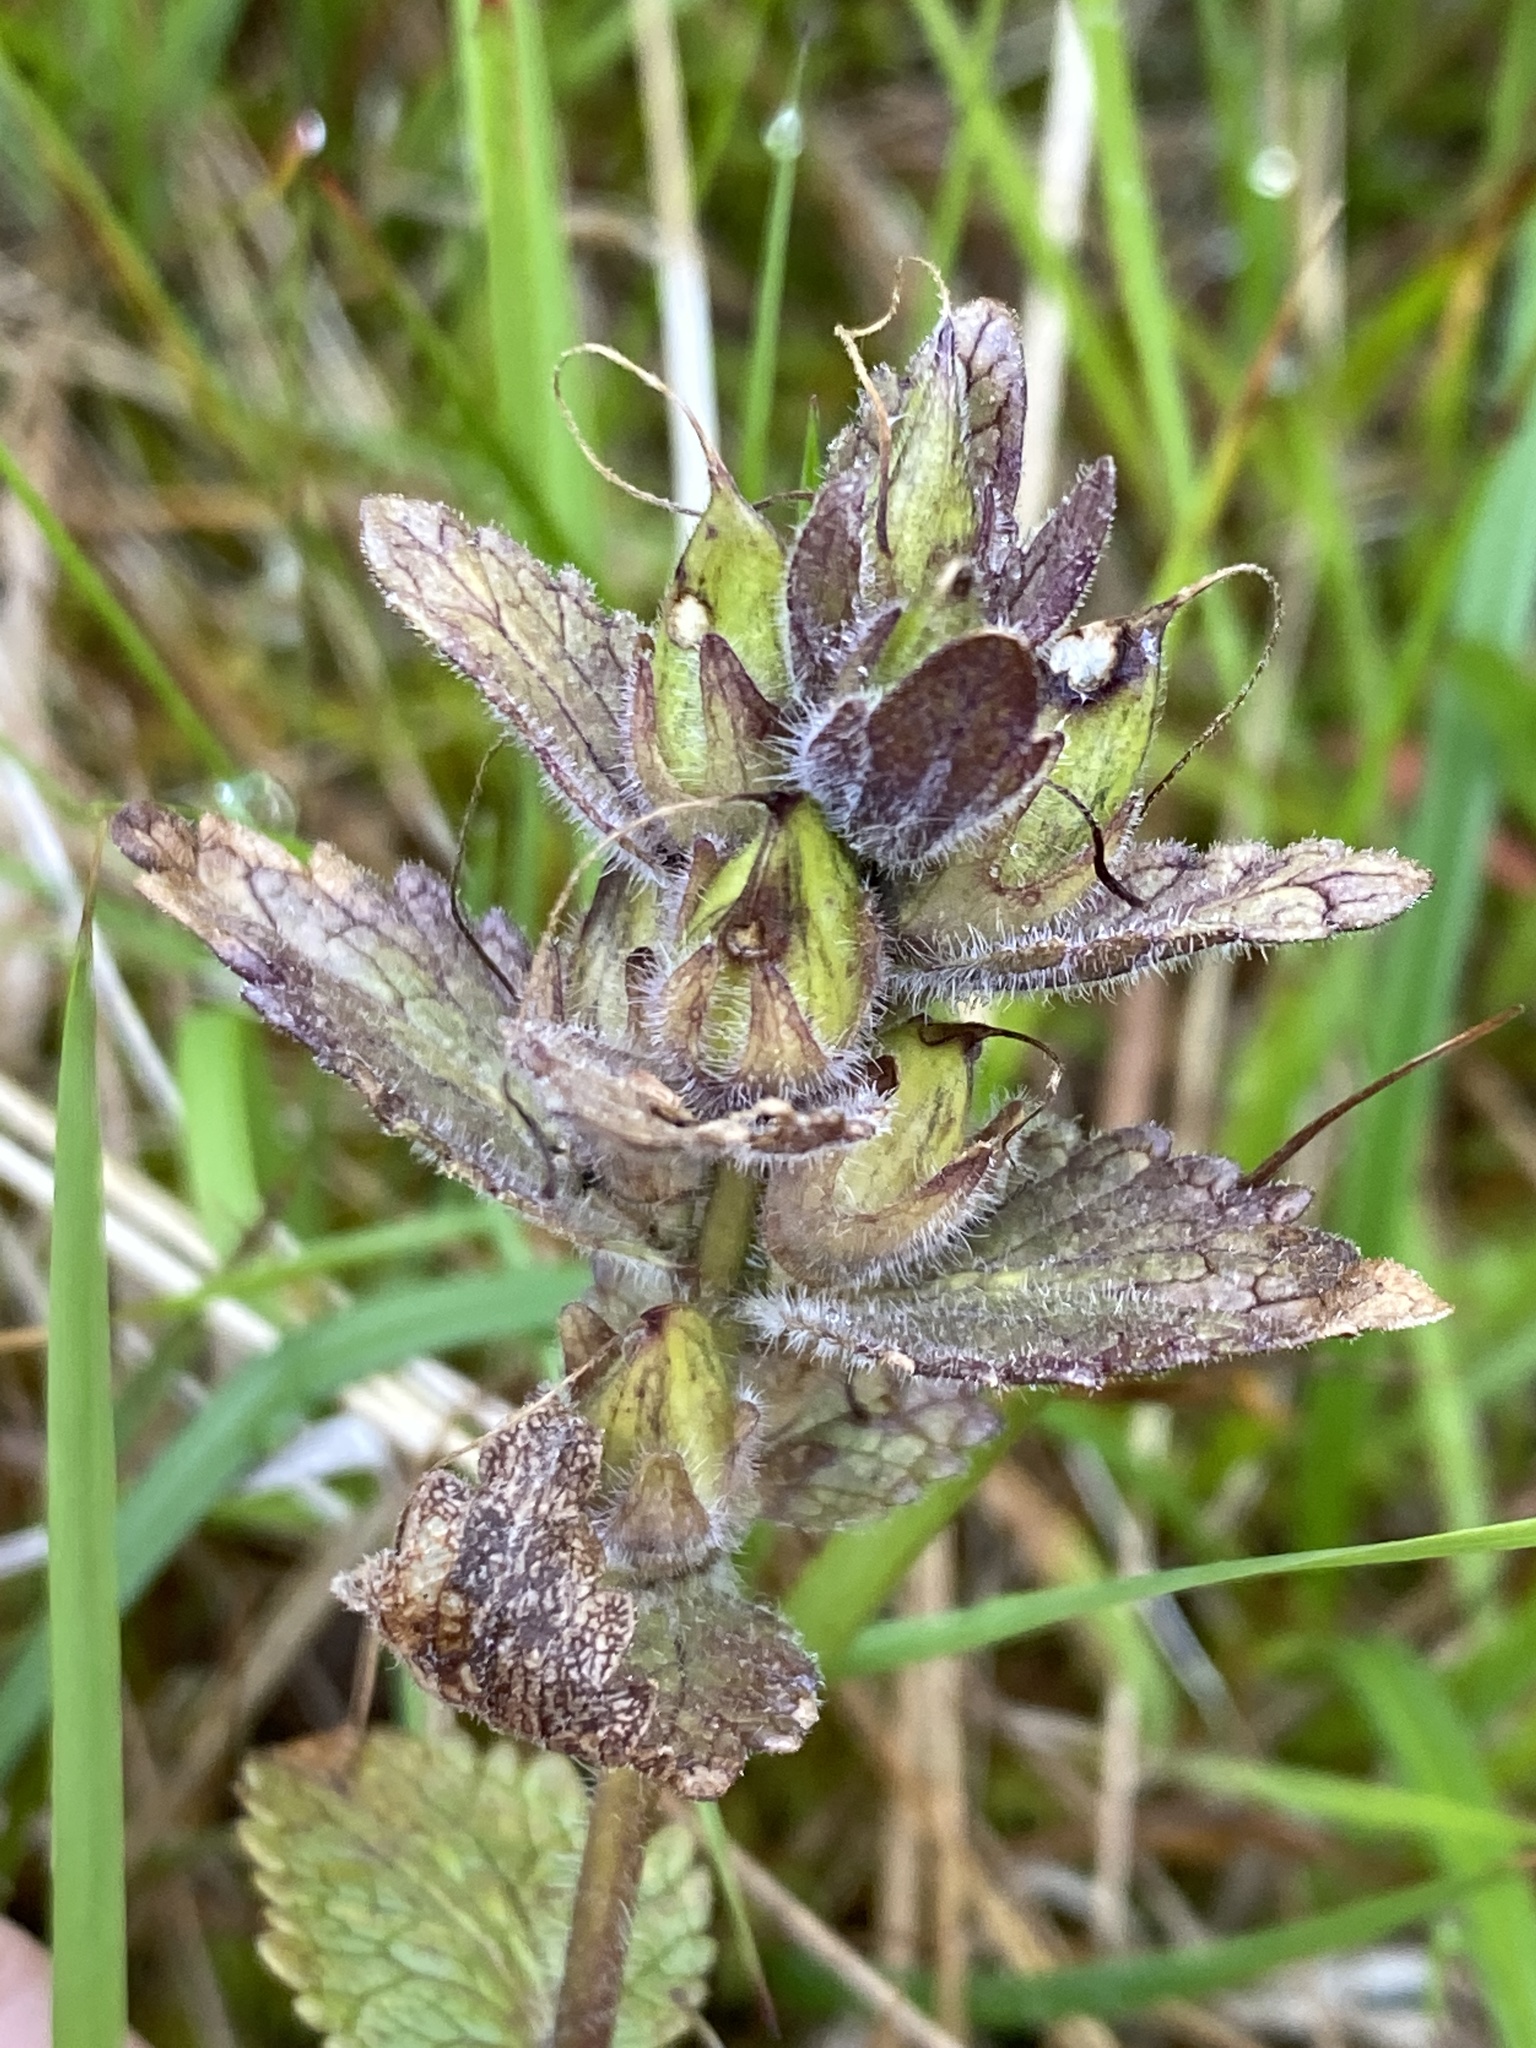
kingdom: Plantae
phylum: Tracheophyta
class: Magnoliopsida
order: Lamiales
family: Orobanchaceae
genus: Bartsia
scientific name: Bartsia alpina
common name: Alpine bartsia
